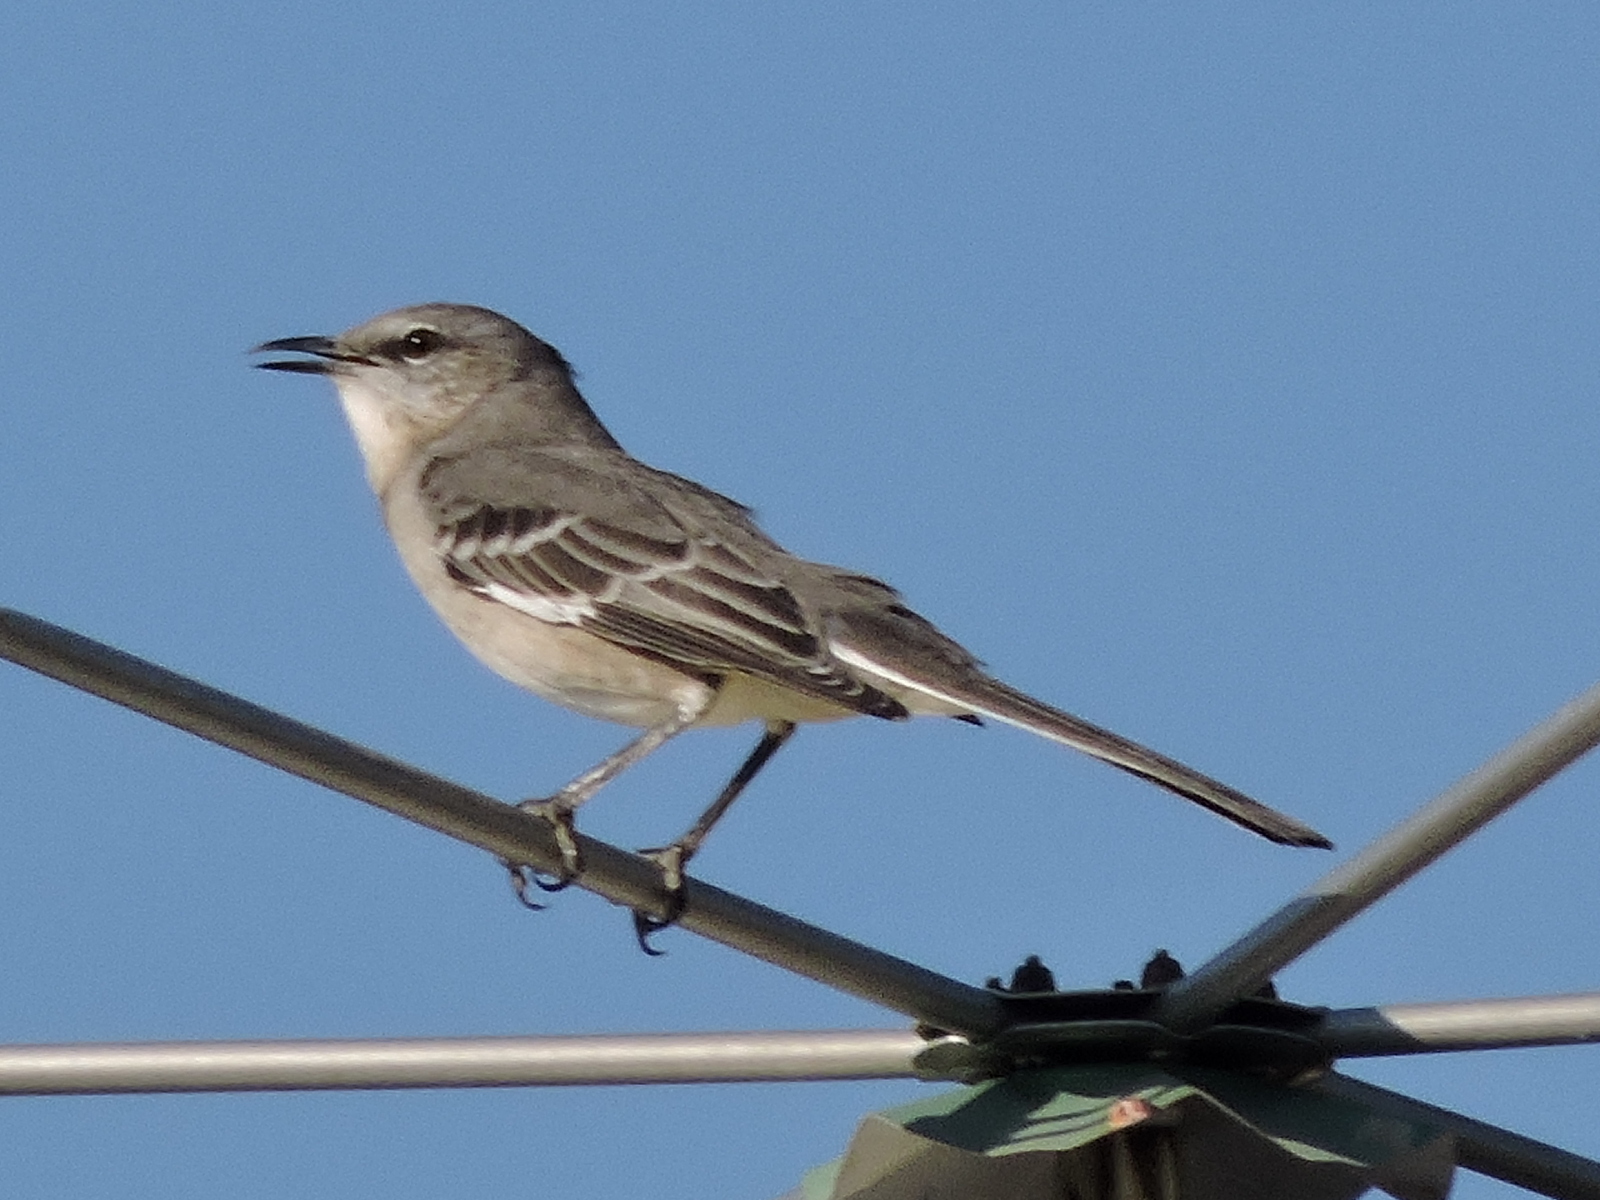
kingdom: Animalia
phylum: Chordata
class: Aves
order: Passeriformes
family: Mimidae
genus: Mimus
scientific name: Mimus polyglottos
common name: Northern mockingbird
